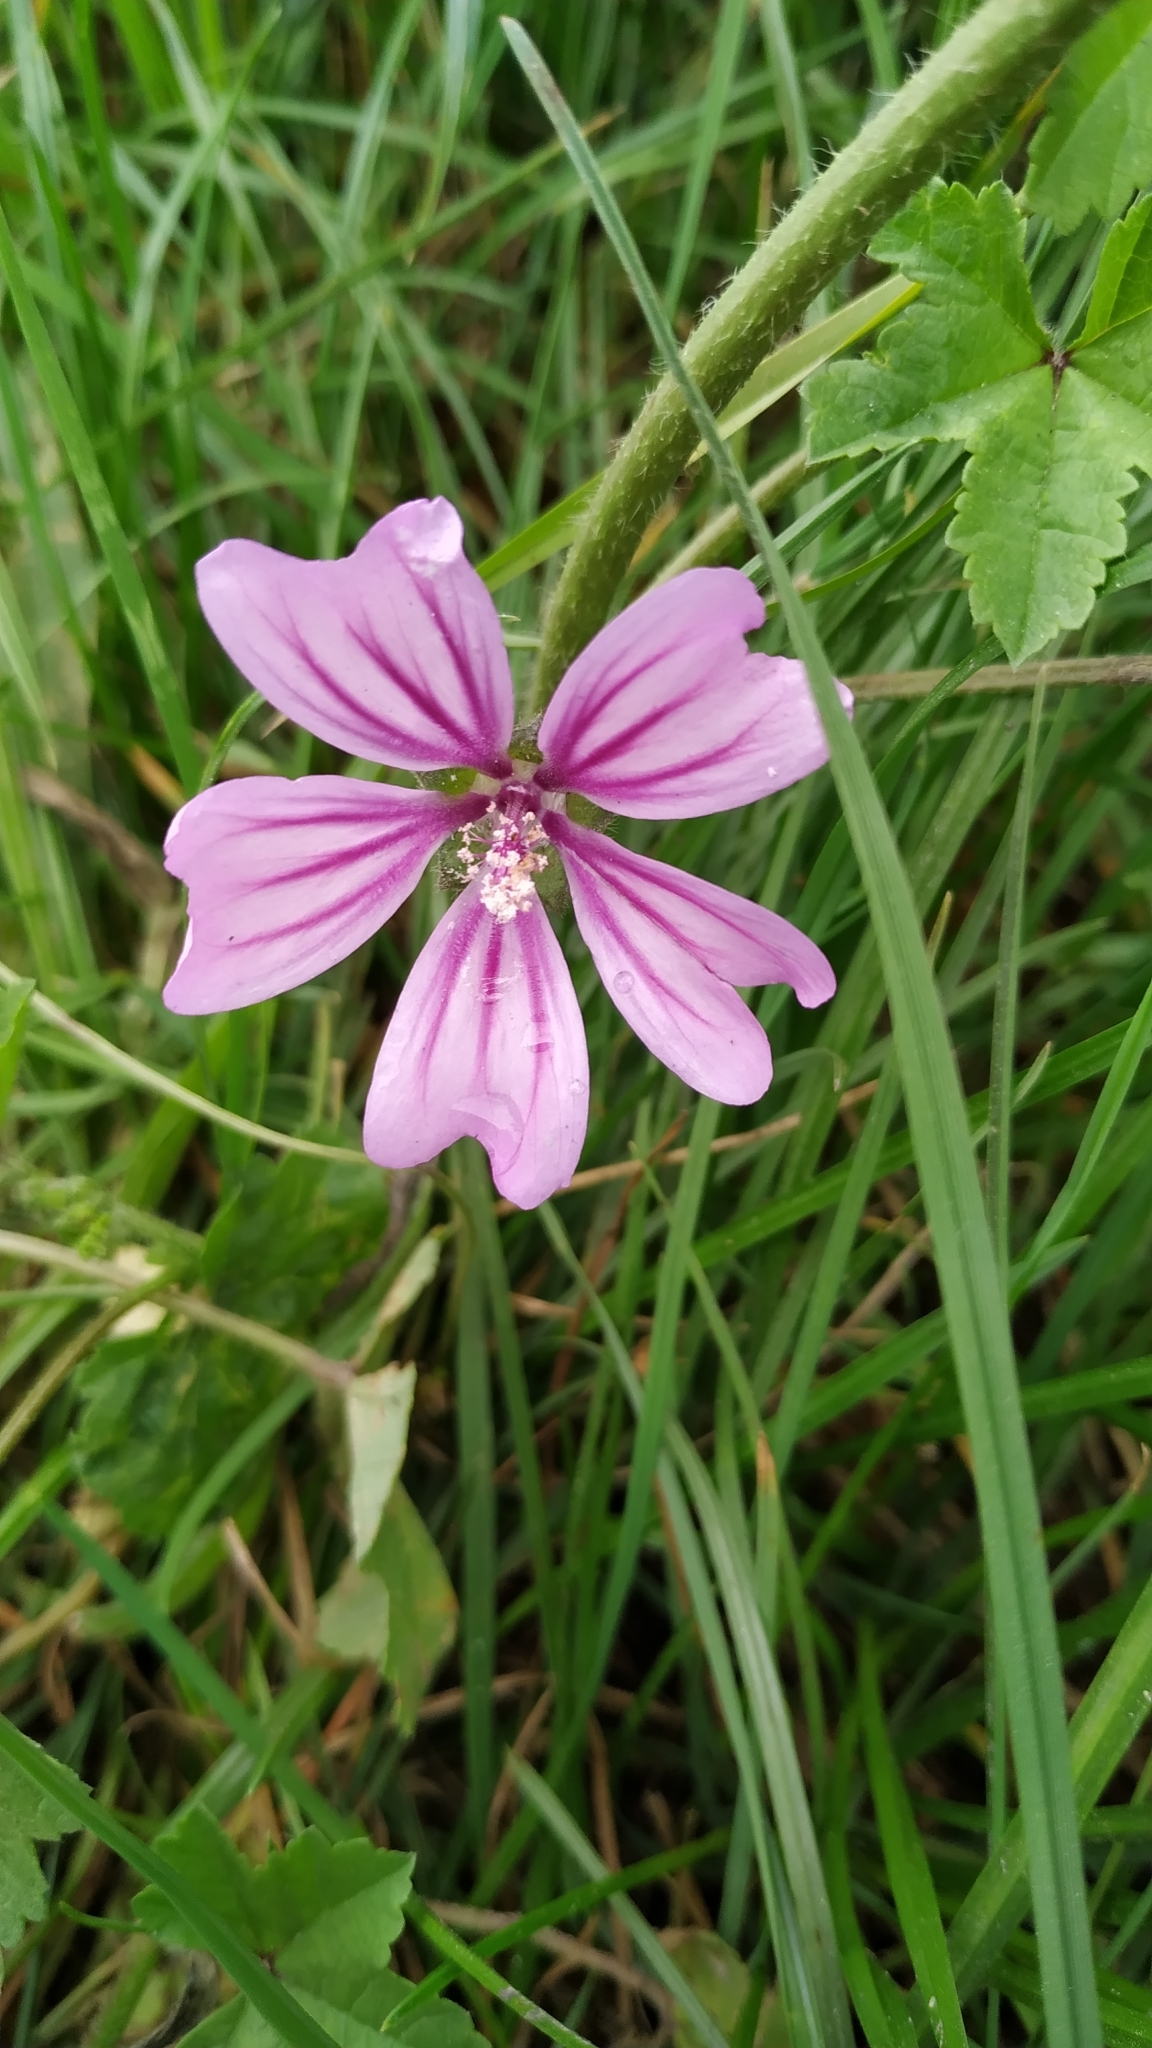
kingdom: Plantae
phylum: Tracheophyta
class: Magnoliopsida
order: Malvales
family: Malvaceae
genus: Malva
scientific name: Malva sylvestris
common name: Common mallow
